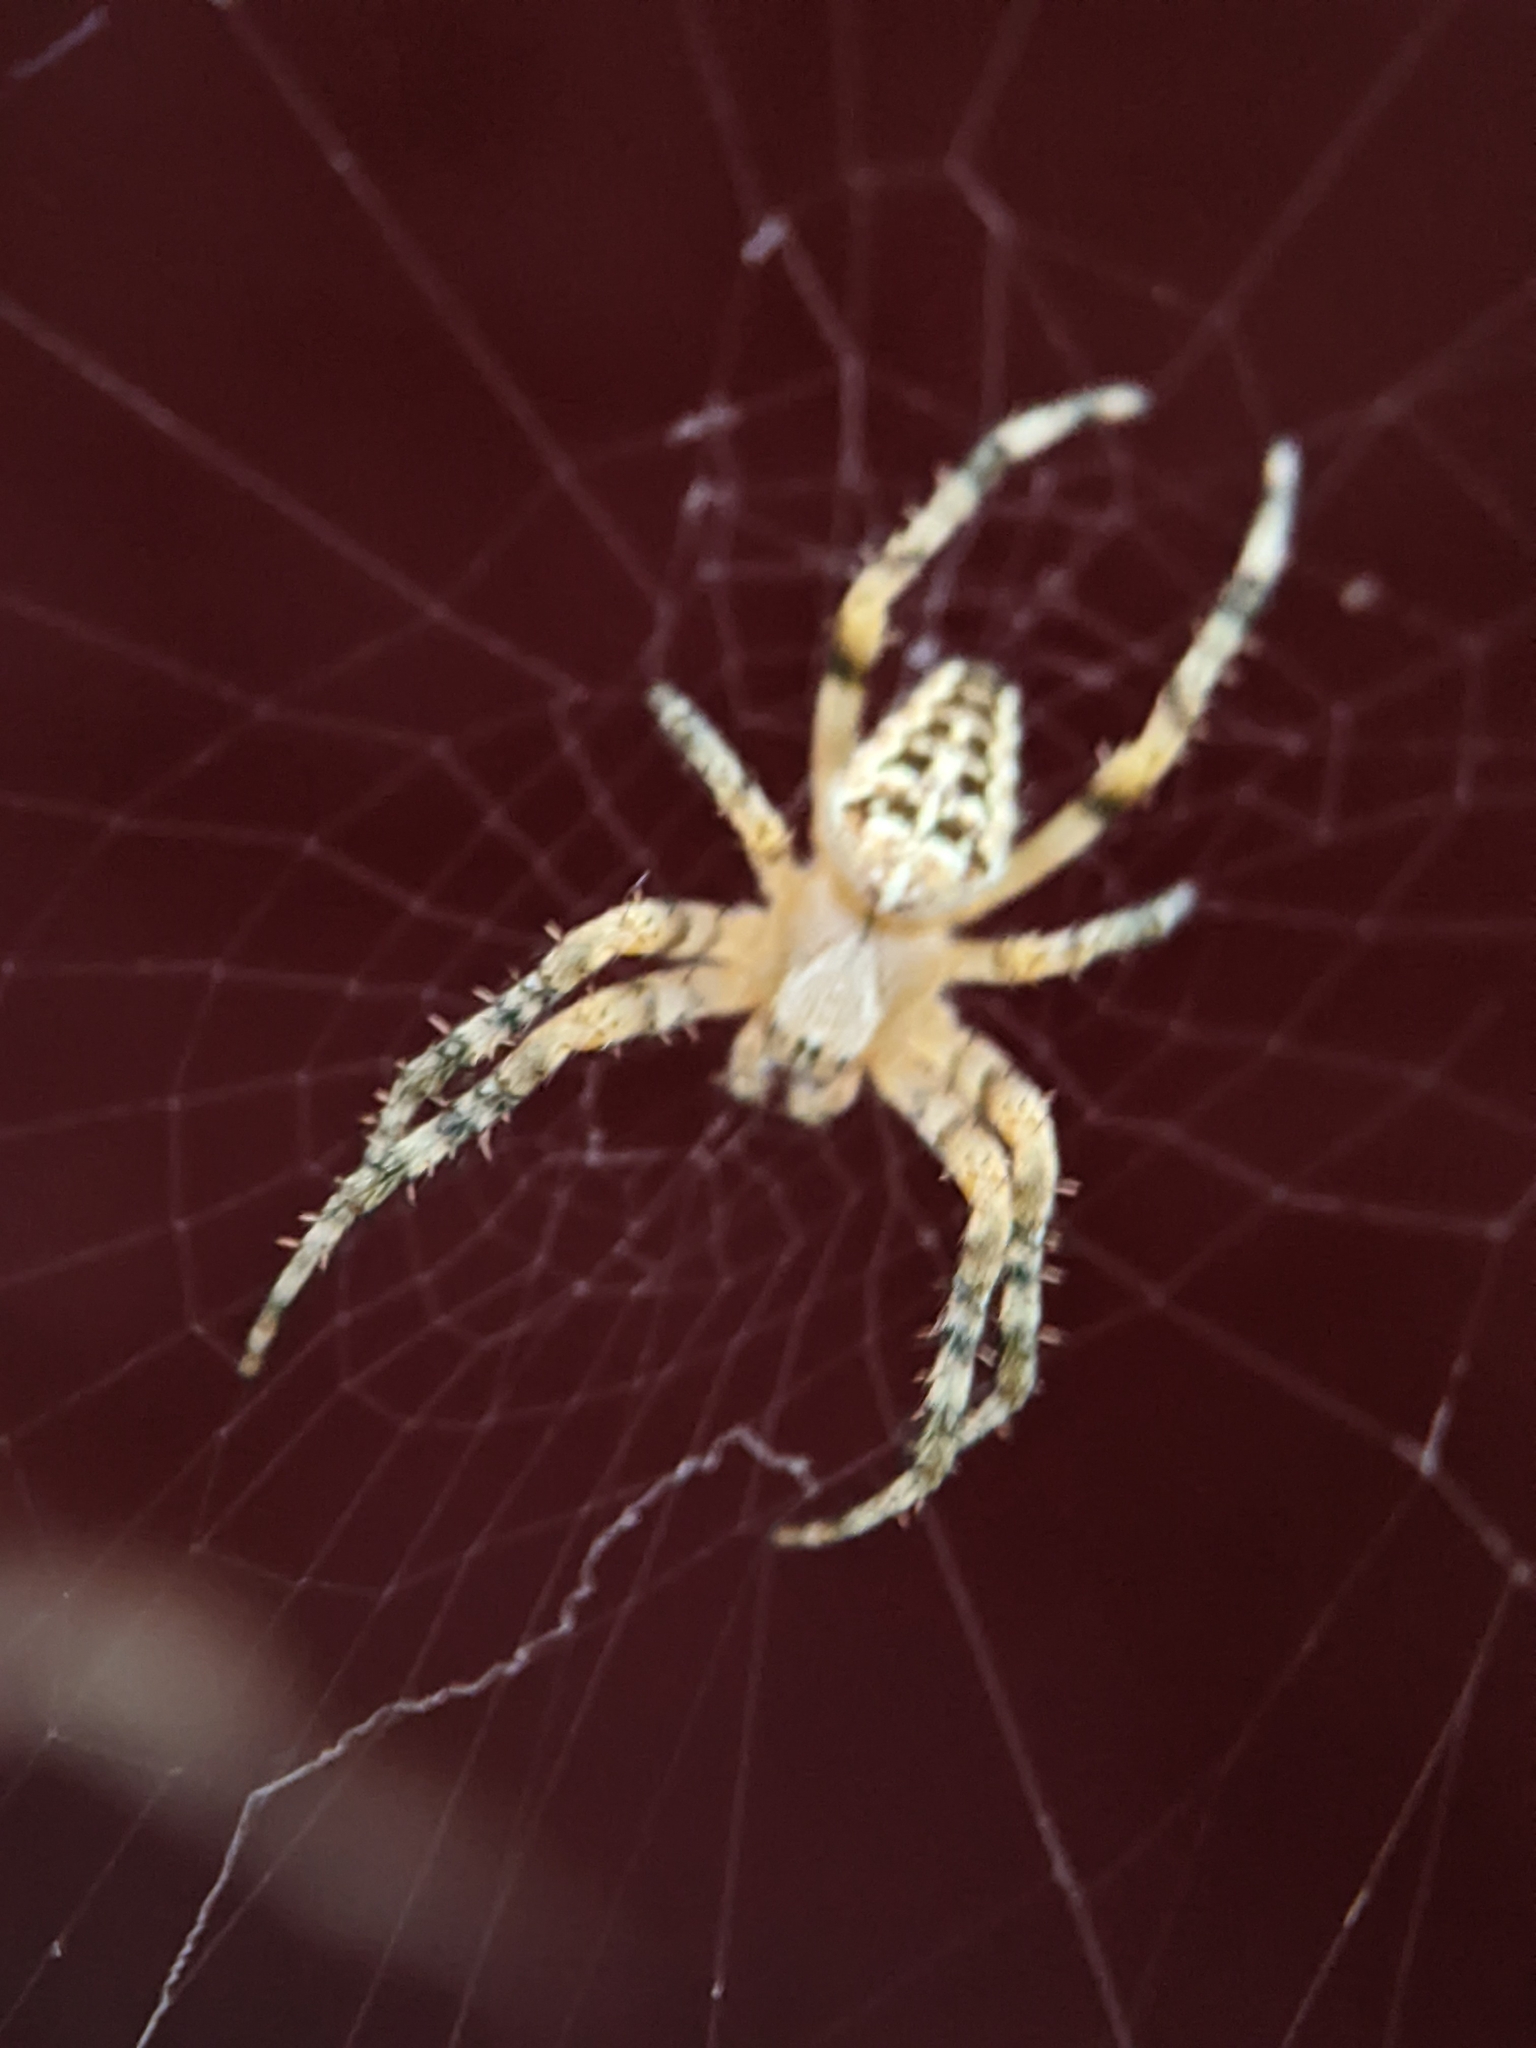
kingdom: Animalia
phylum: Arthropoda
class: Arachnida
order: Araneae
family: Araneidae
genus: Araneus
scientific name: Araneus diadematus
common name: Cross orbweaver
